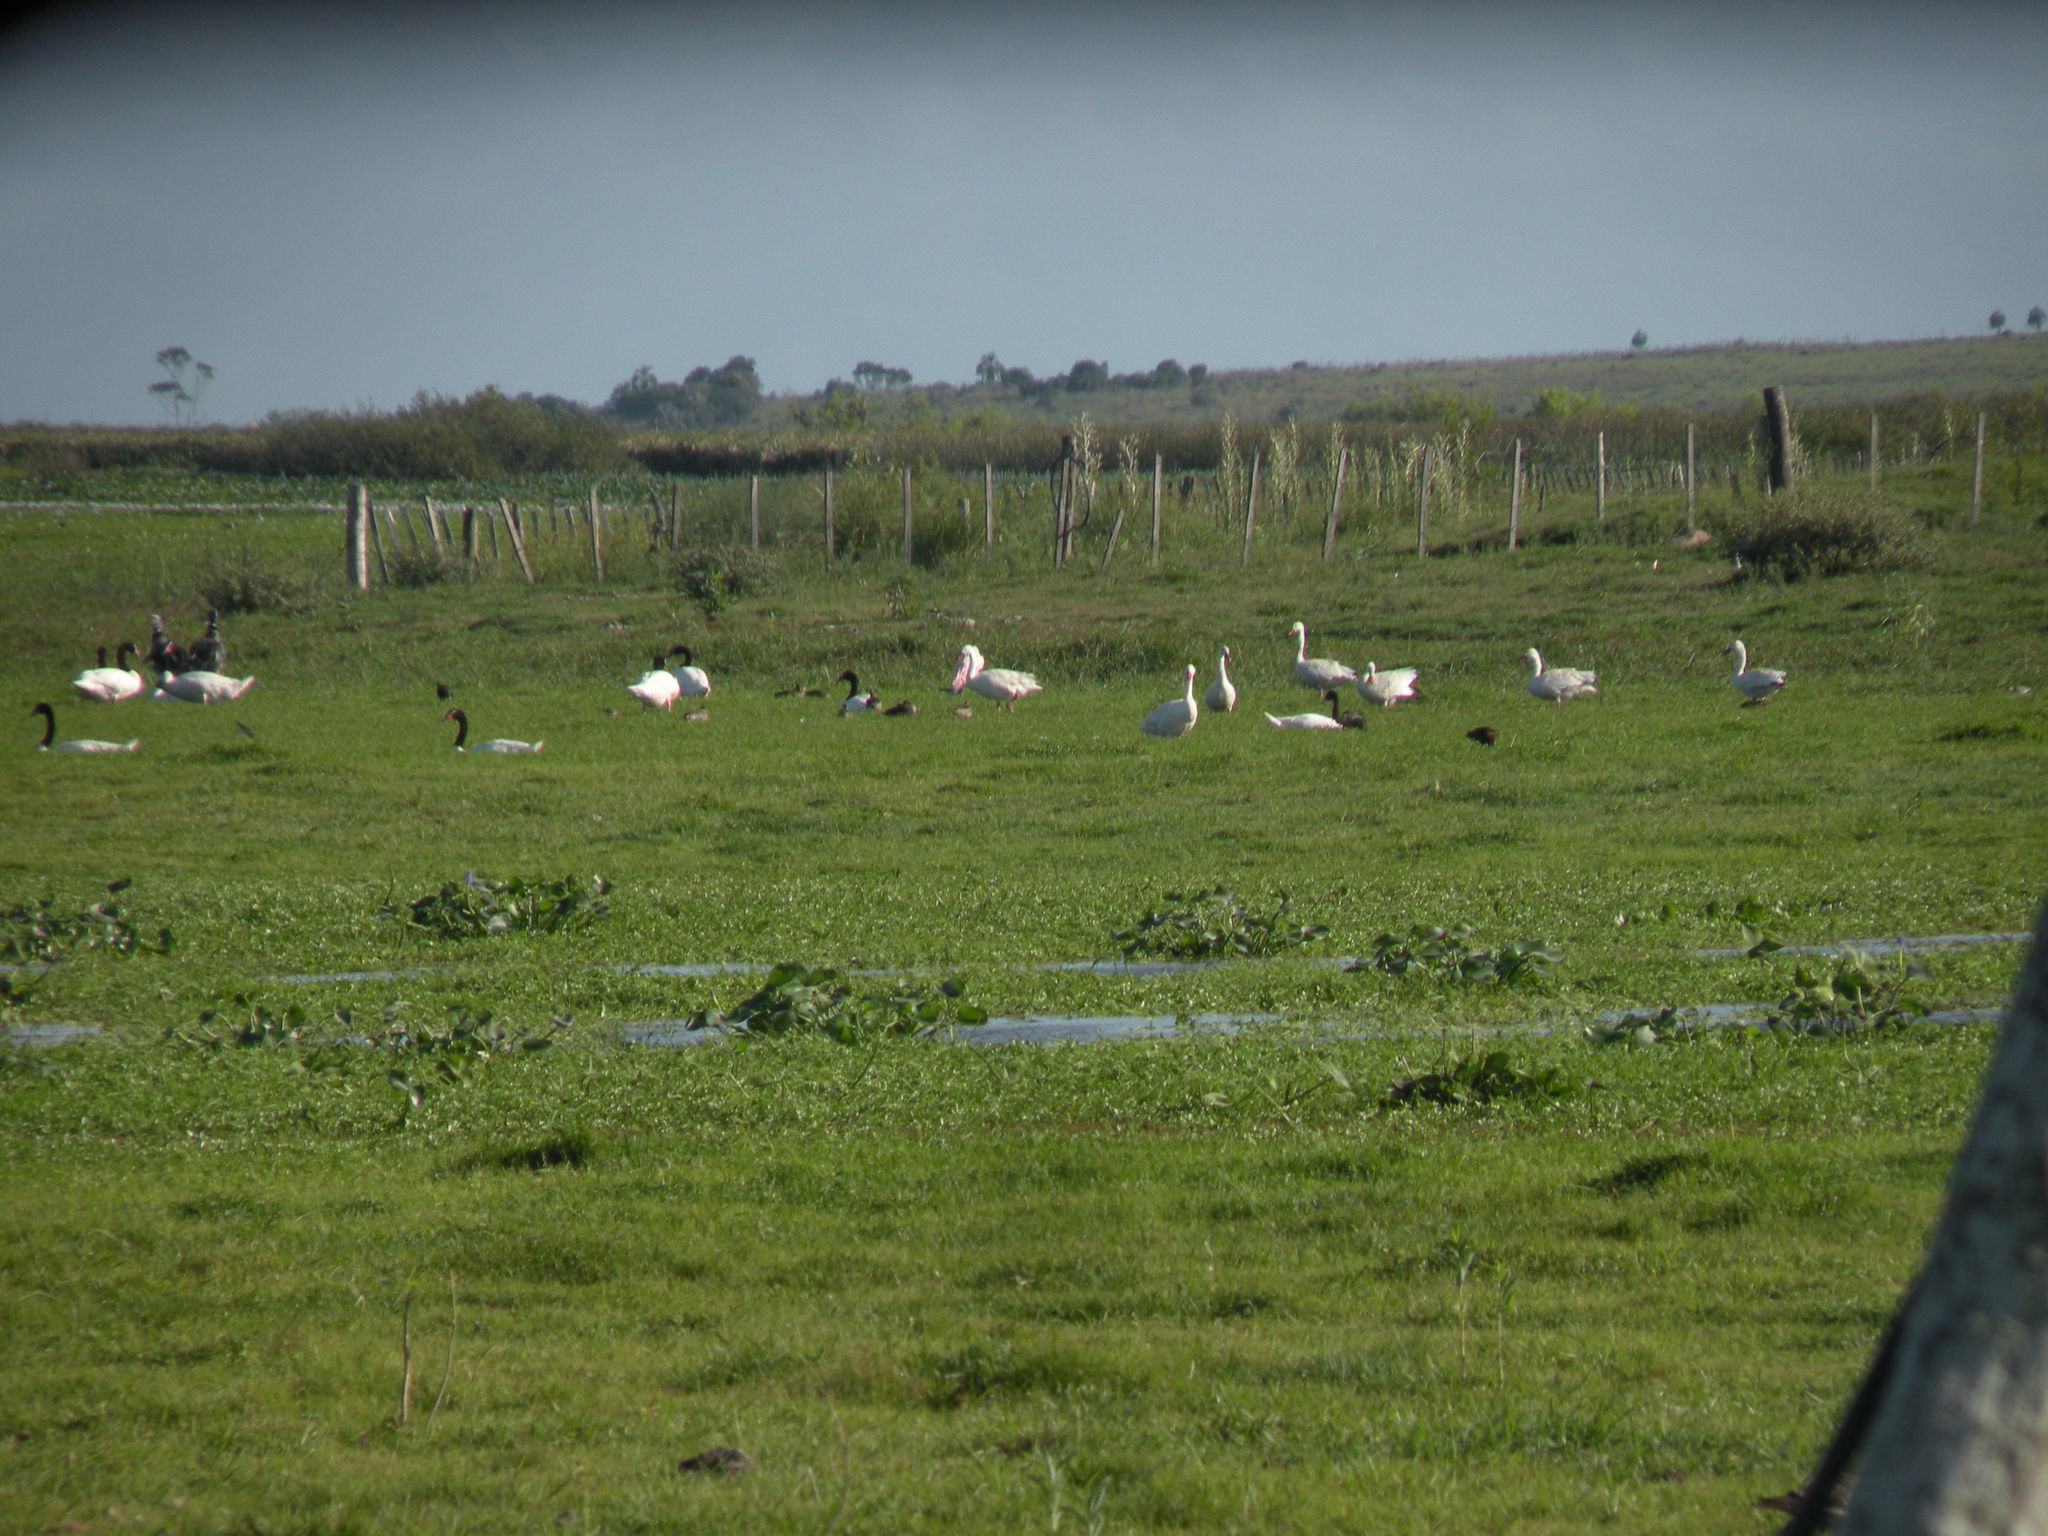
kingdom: Animalia
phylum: Chordata
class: Aves
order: Anseriformes
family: Anatidae
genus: Coscoroba
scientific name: Coscoroba coscoroba
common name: Coscoroba swan
